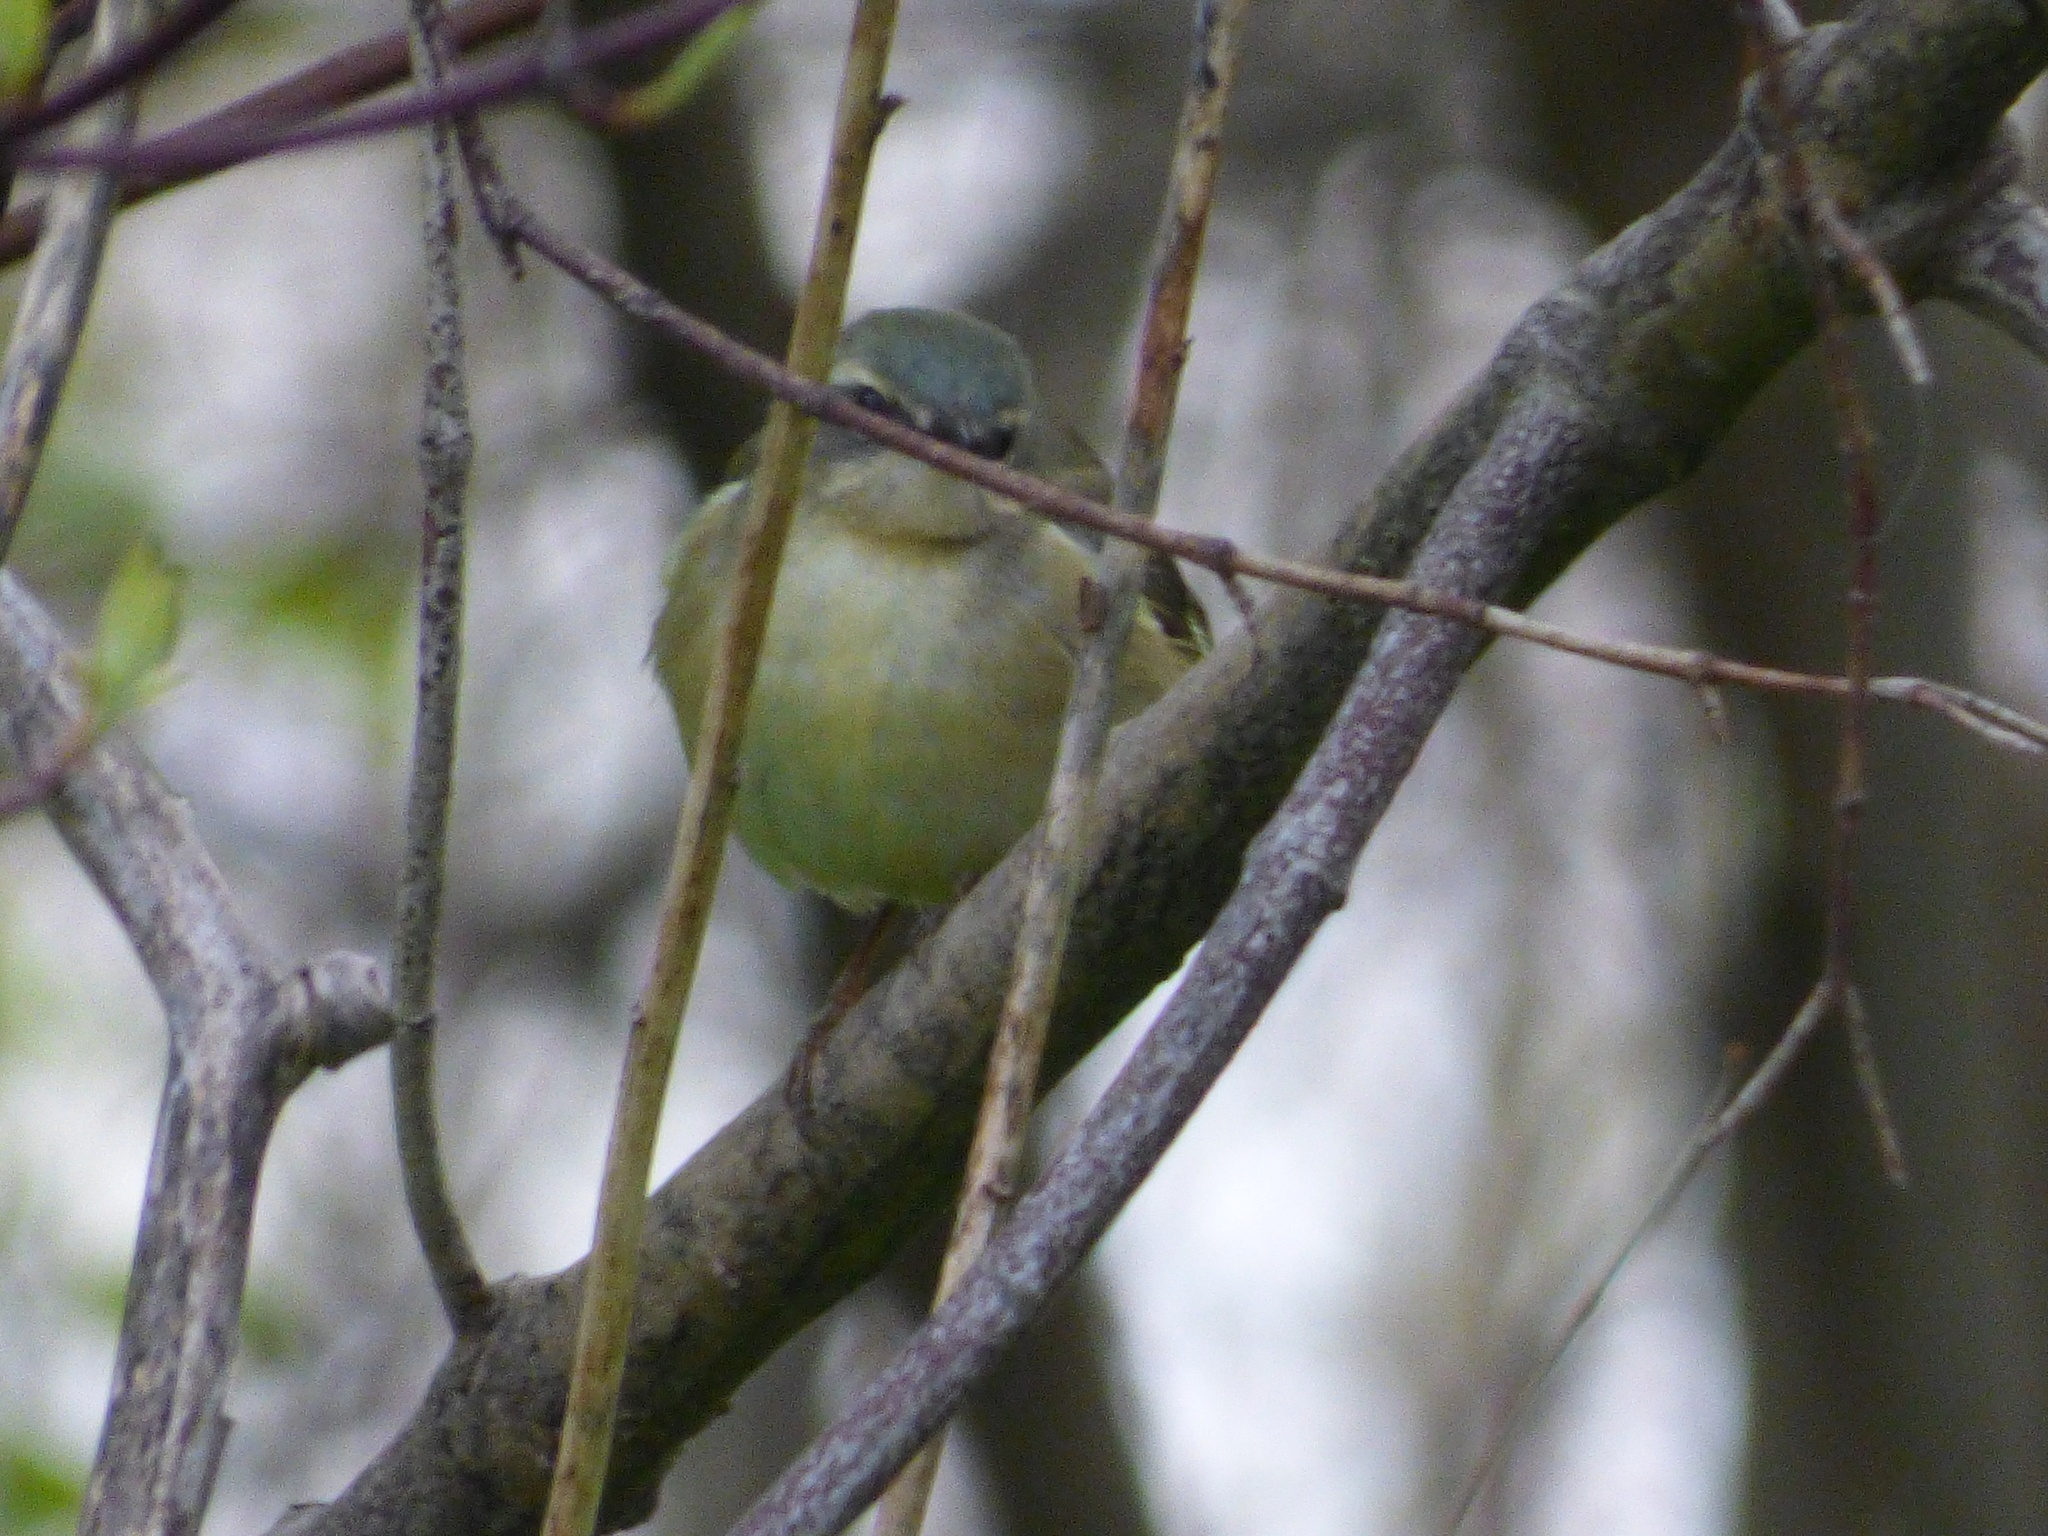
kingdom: Animalia
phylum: Chordata
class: Aves
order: Passeriformes
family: Parulidae
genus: Setophaga
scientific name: Setophaga caerulescens
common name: Black-throated blue warbler
